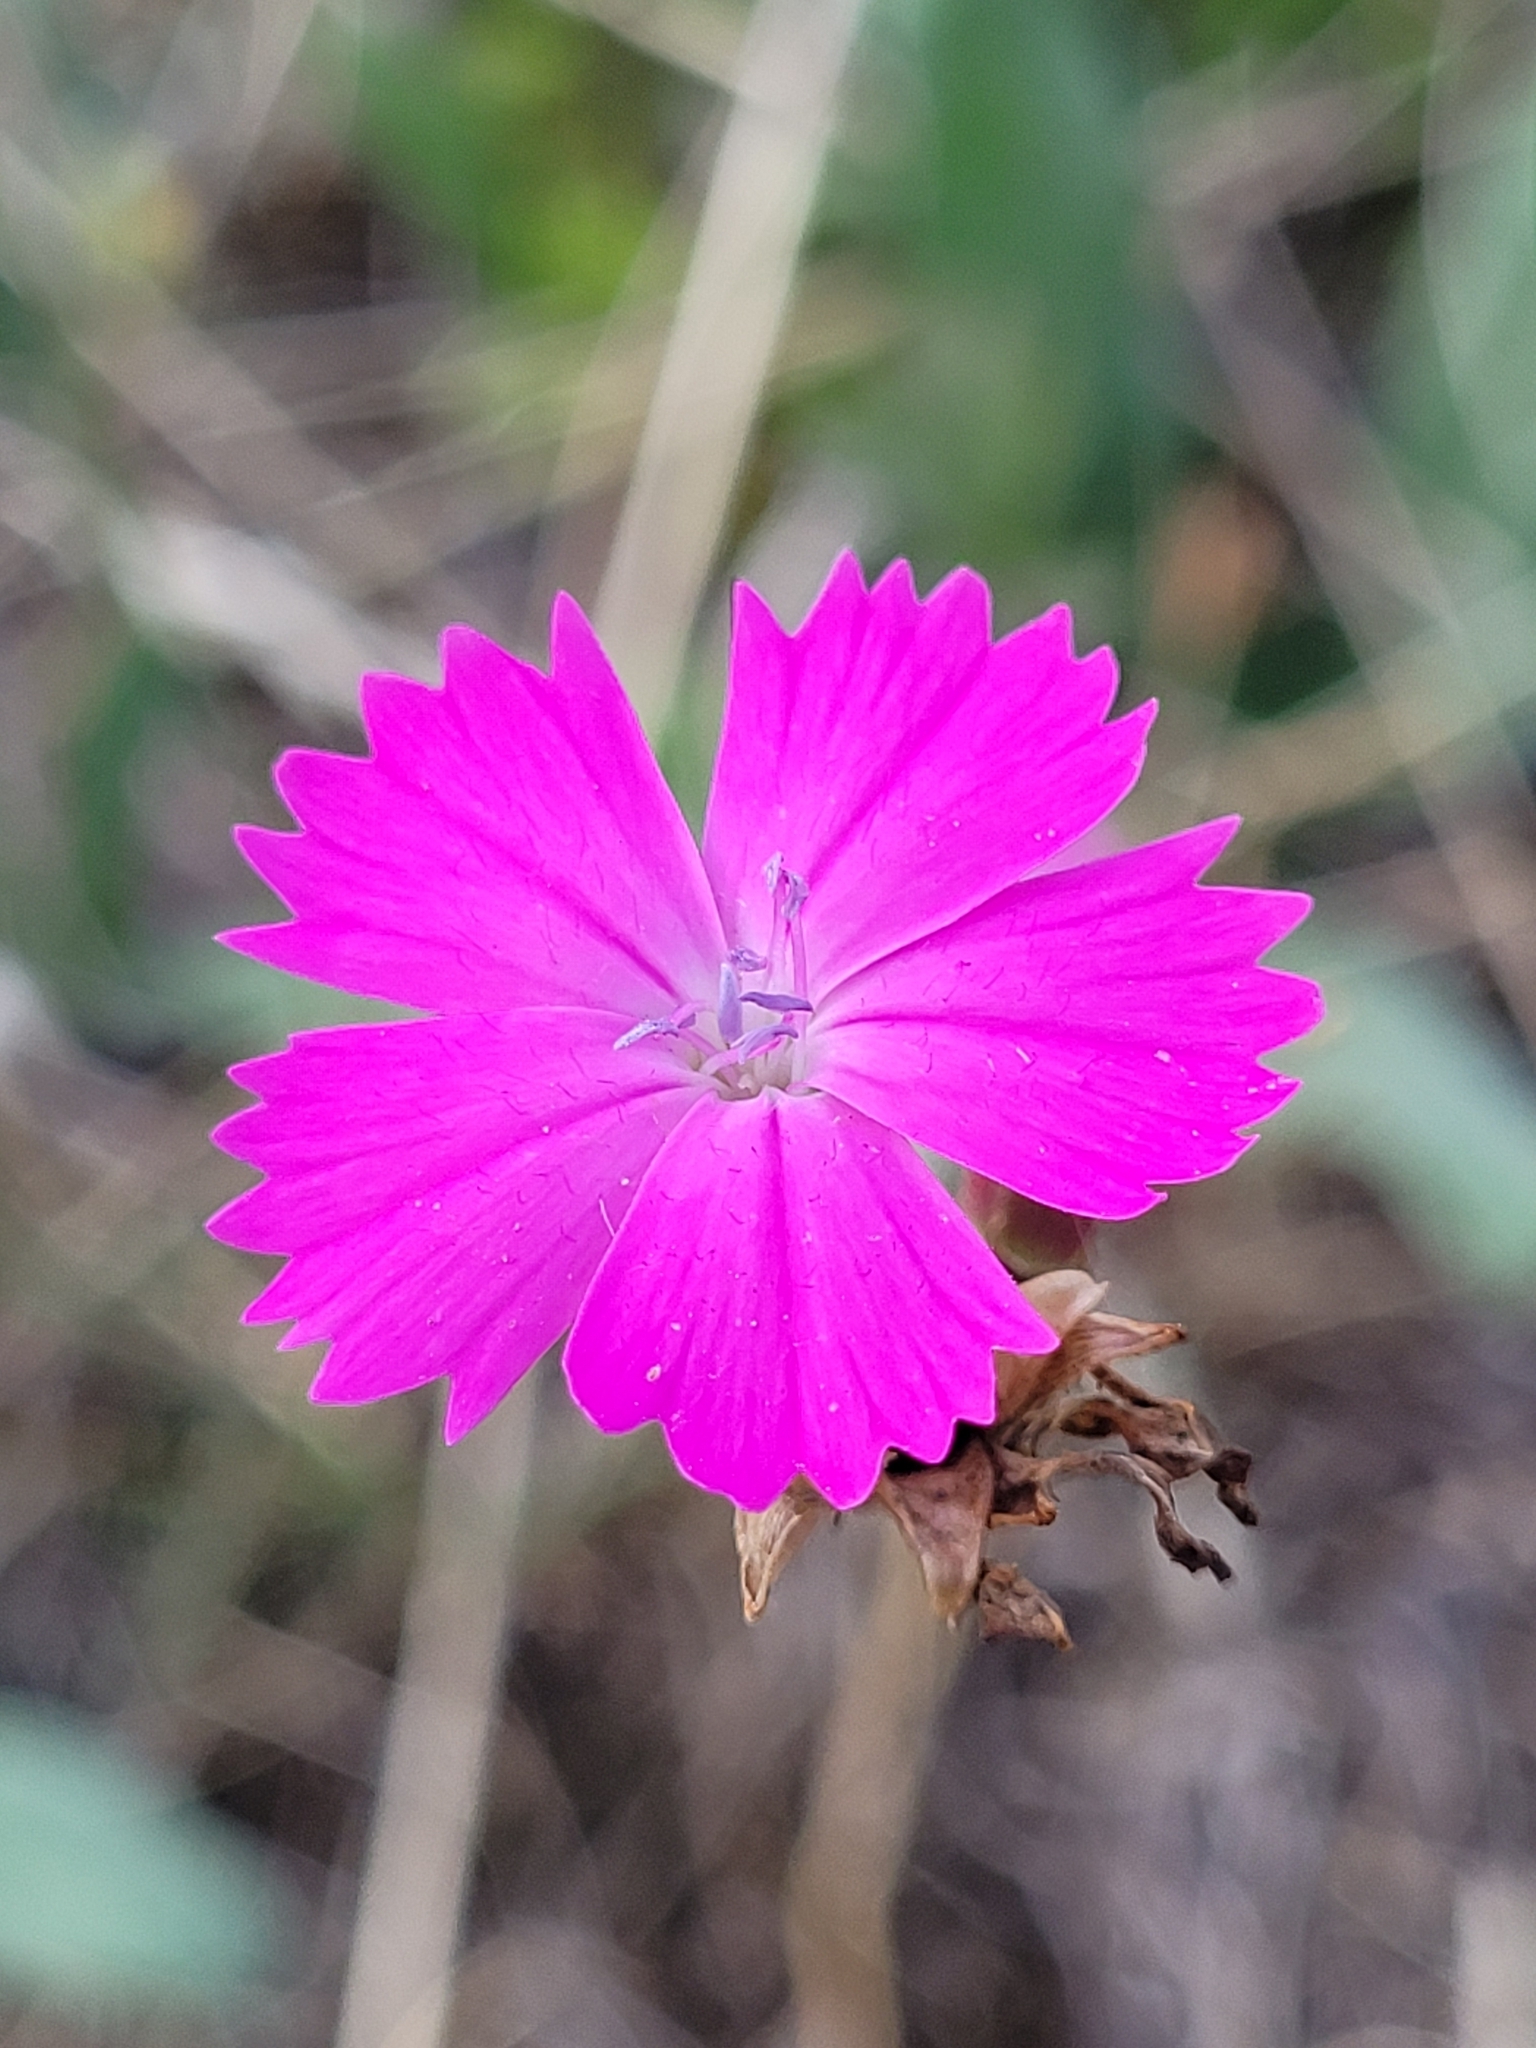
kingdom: Plantae
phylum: Tracheophyta
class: Magnoliopsida
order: Caryophyllales
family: Caryophyllaceae
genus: Dianthus
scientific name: Dianthus carthusianorum
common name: Carthusian pink
